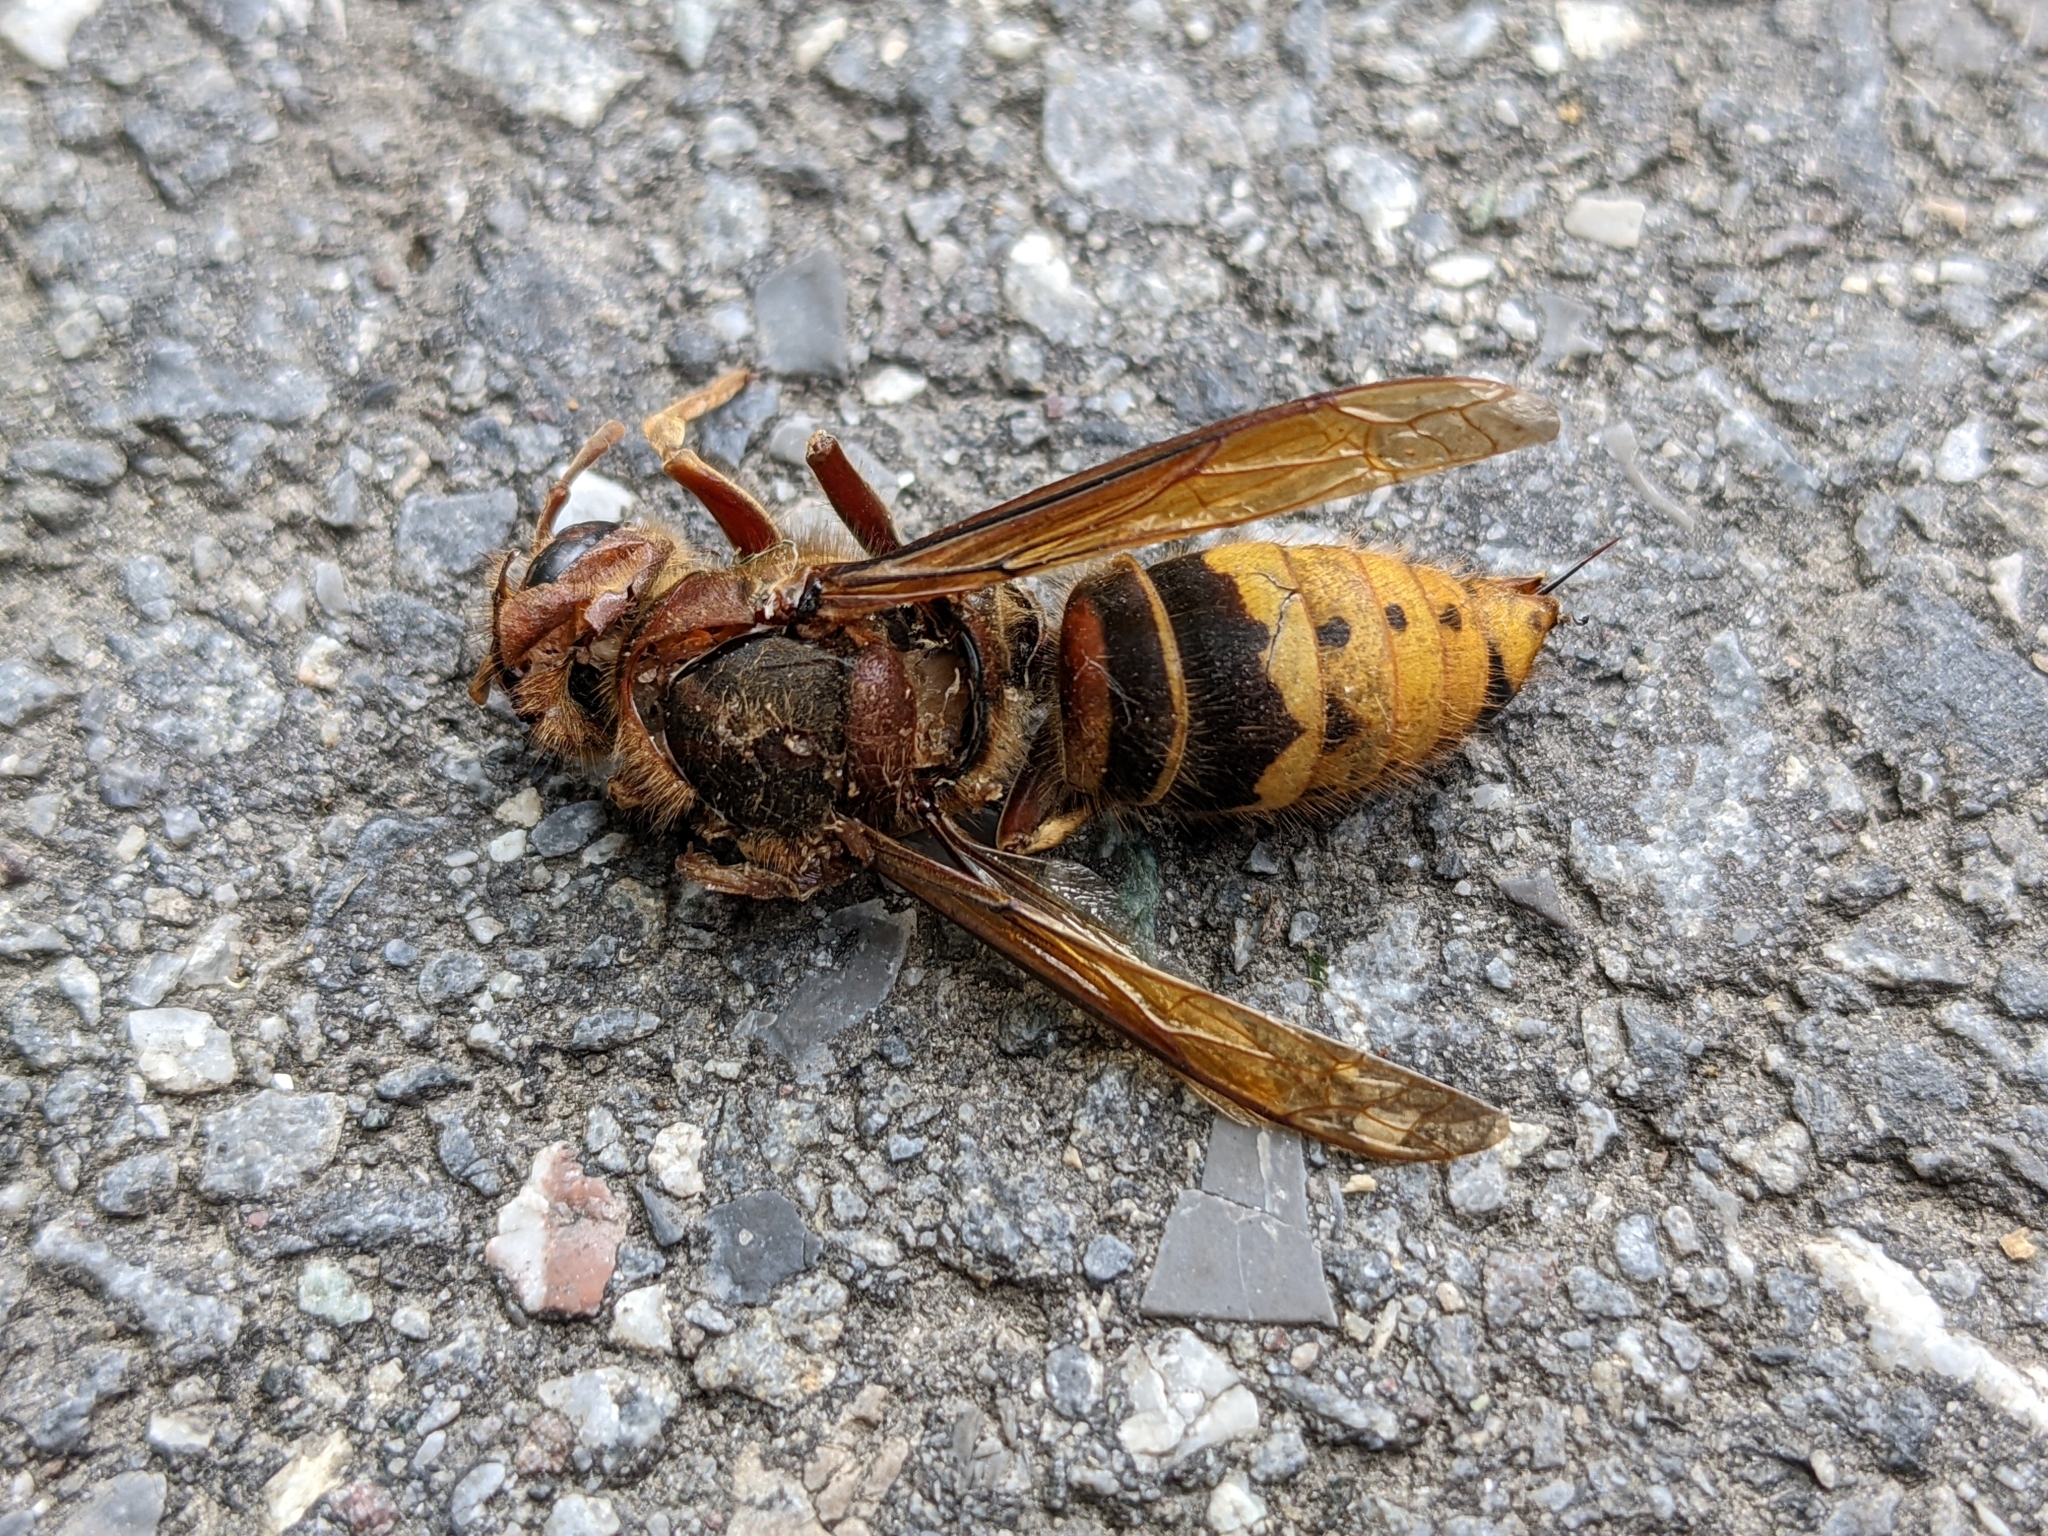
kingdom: Animalia
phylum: Arthropoda
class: Insecta
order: Hymenoptera
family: Vespidae
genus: Vespa
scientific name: Vespa crabro
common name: Hornet
